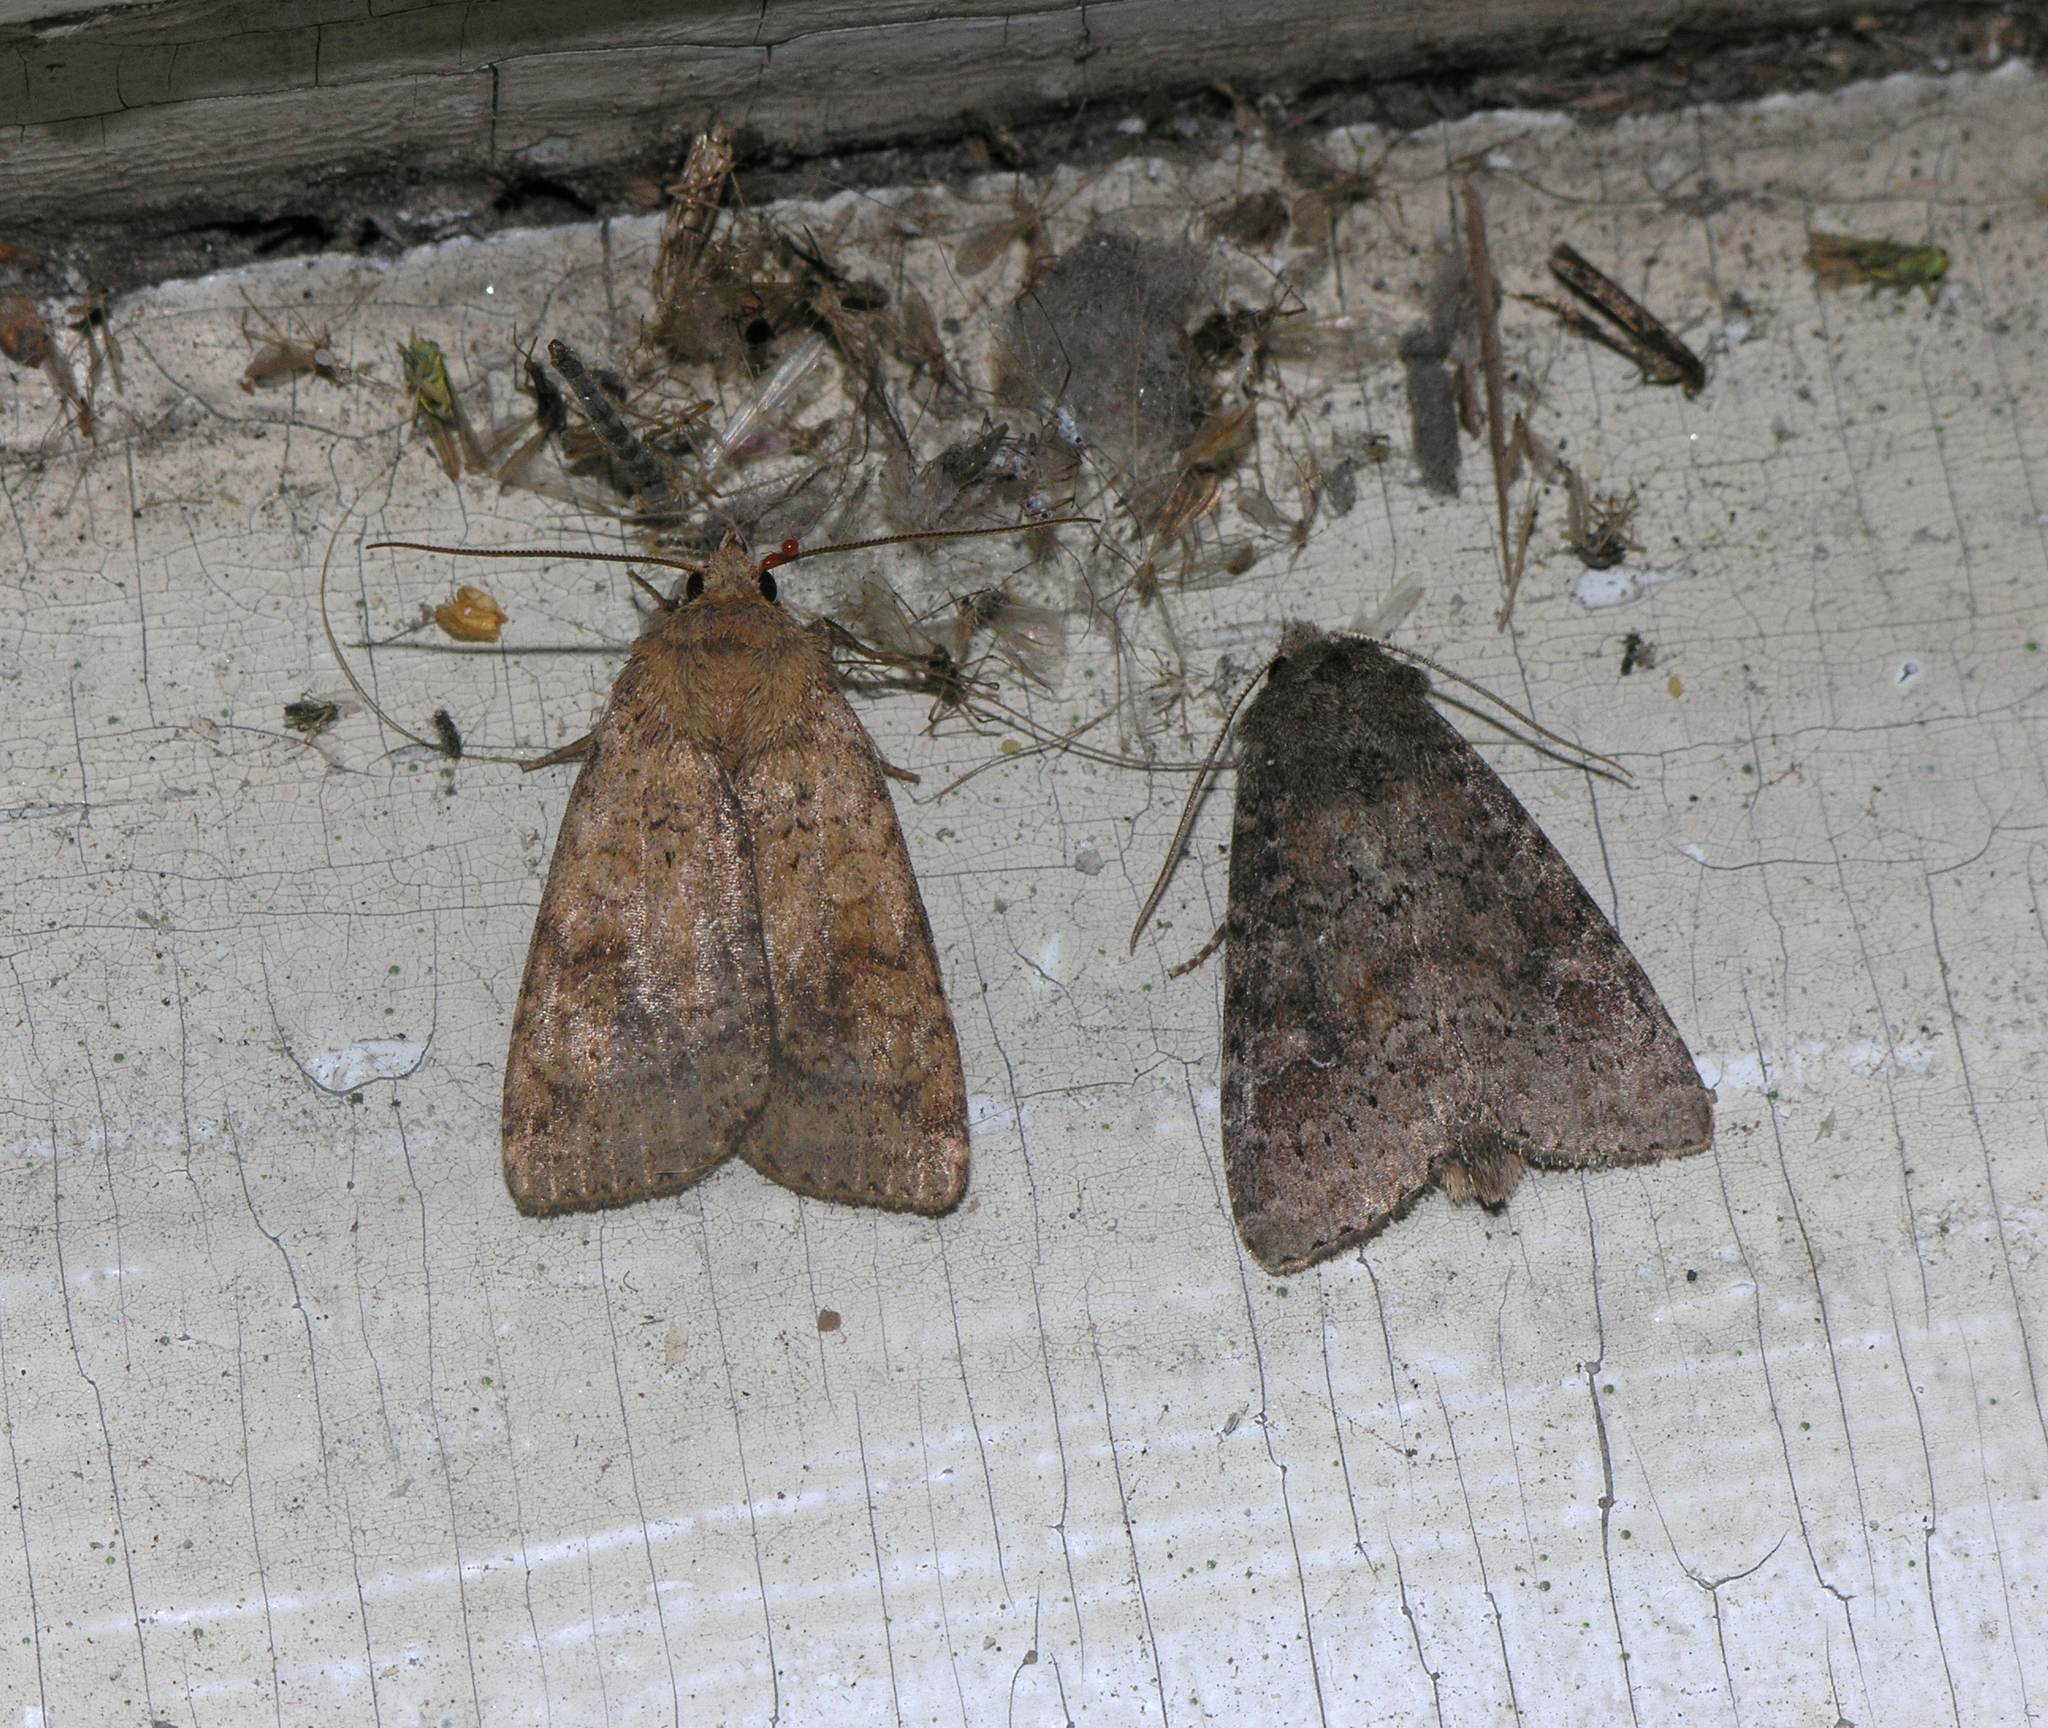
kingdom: Animalia
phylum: Arthropoda
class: Insecta
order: Lepidoptera
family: Noctuidae
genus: Diarsia
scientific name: Diarsia dahlii
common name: Barred chestnut
